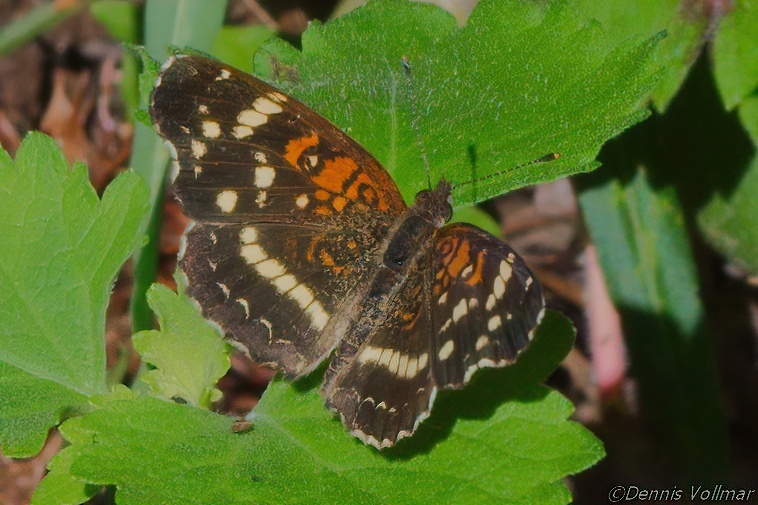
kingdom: Animalia
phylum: Arthropoda
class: Insecta
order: Lepidoptera
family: Nymphalidae
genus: Anthanassa
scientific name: Anthanassa taxana
